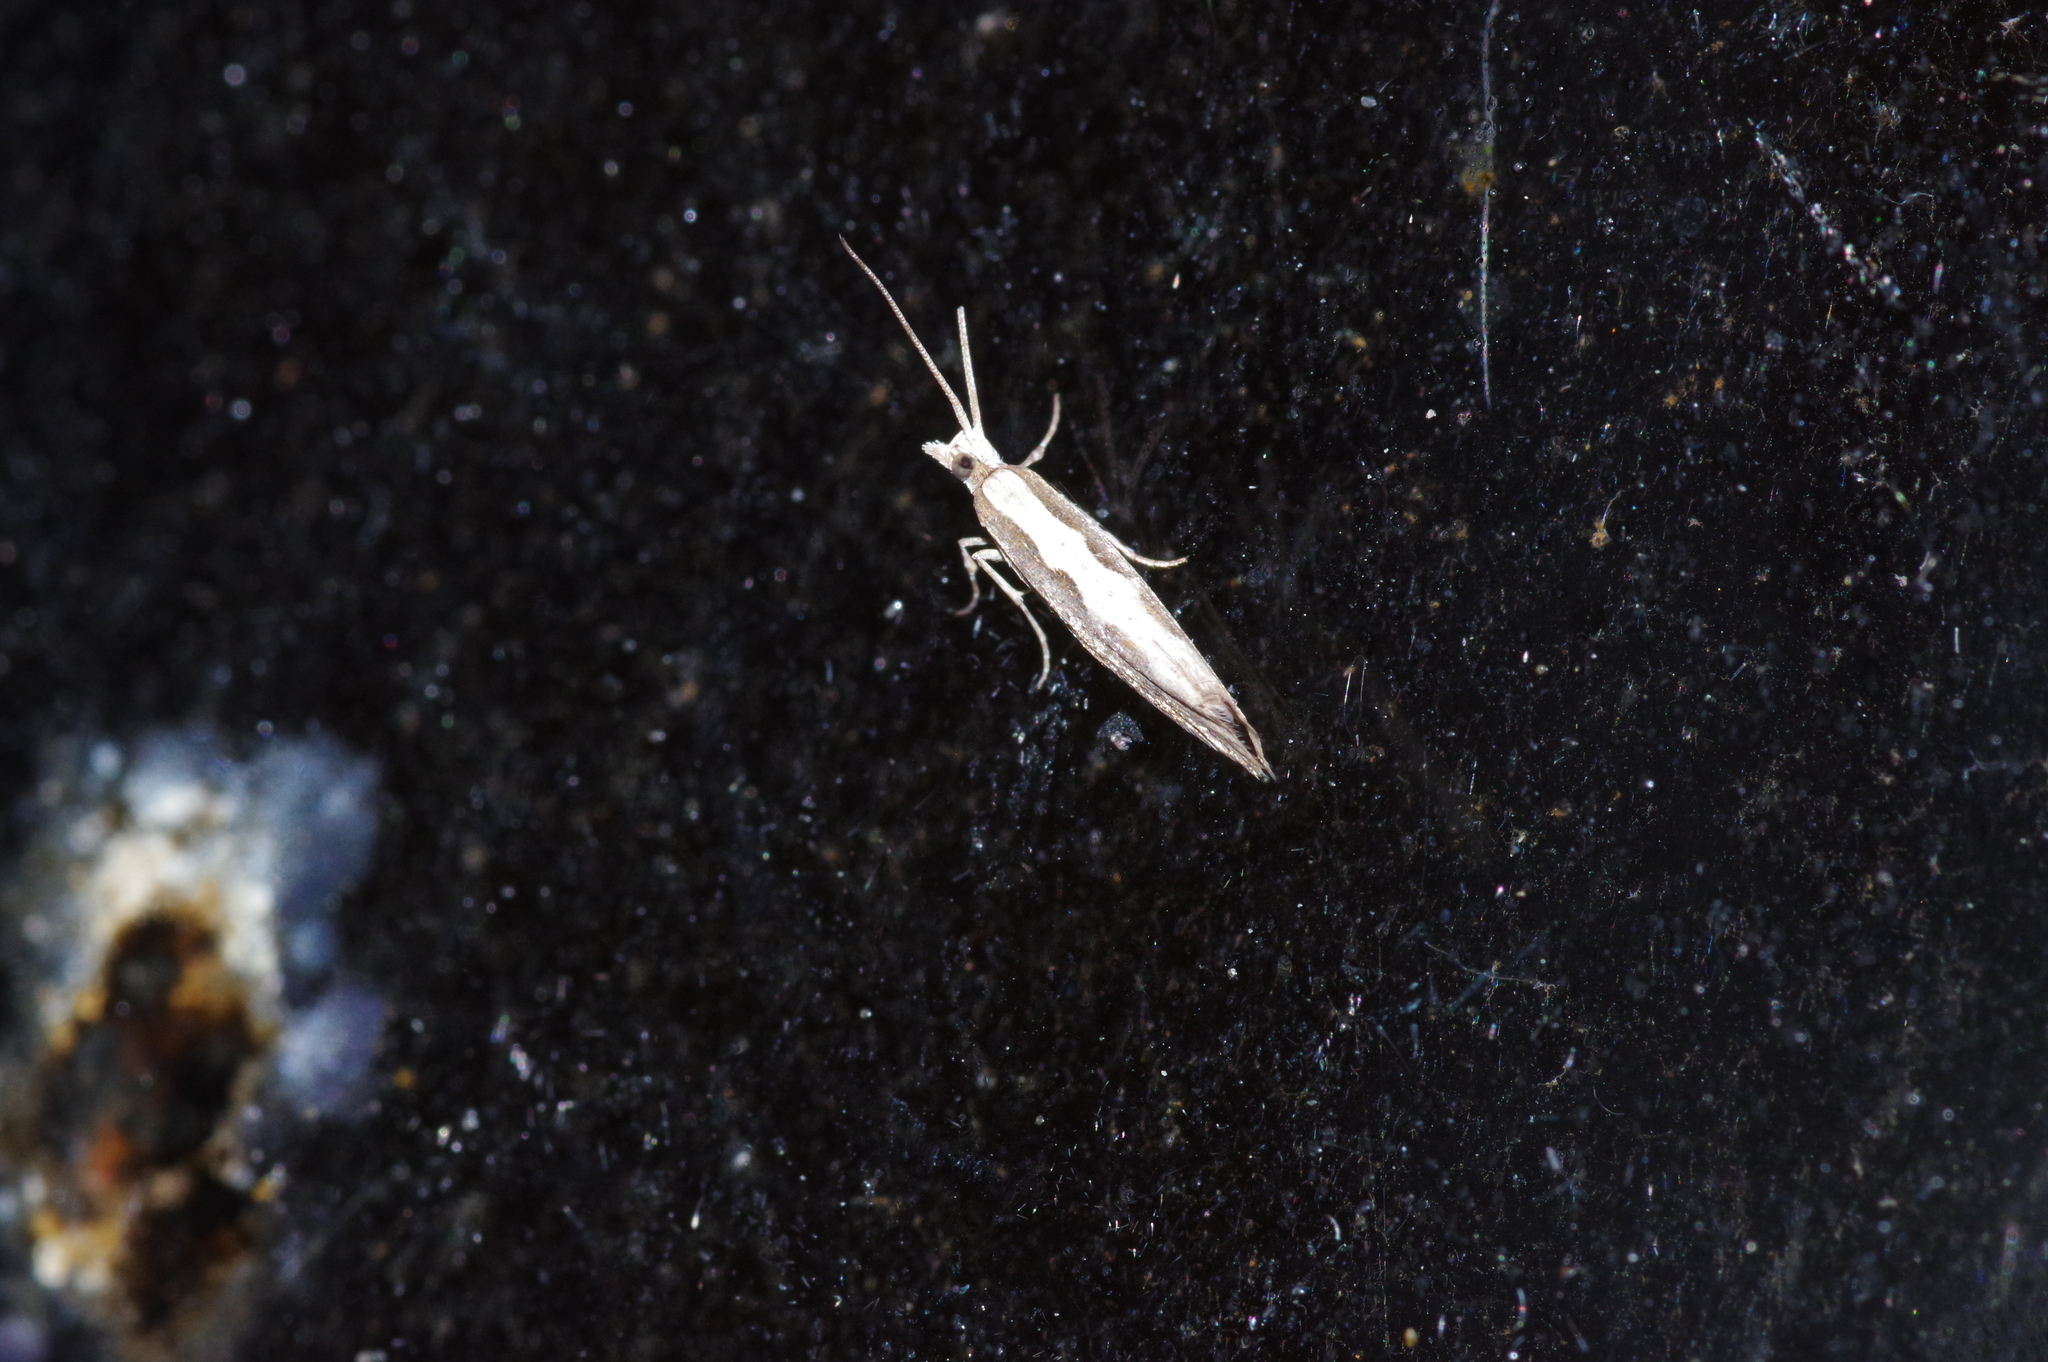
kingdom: Animalia
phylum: Arthropoda
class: Insecta
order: Lepidoptera
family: Plutellidae
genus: Plutella
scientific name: Plutella xylostella
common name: Diamond-back moth
